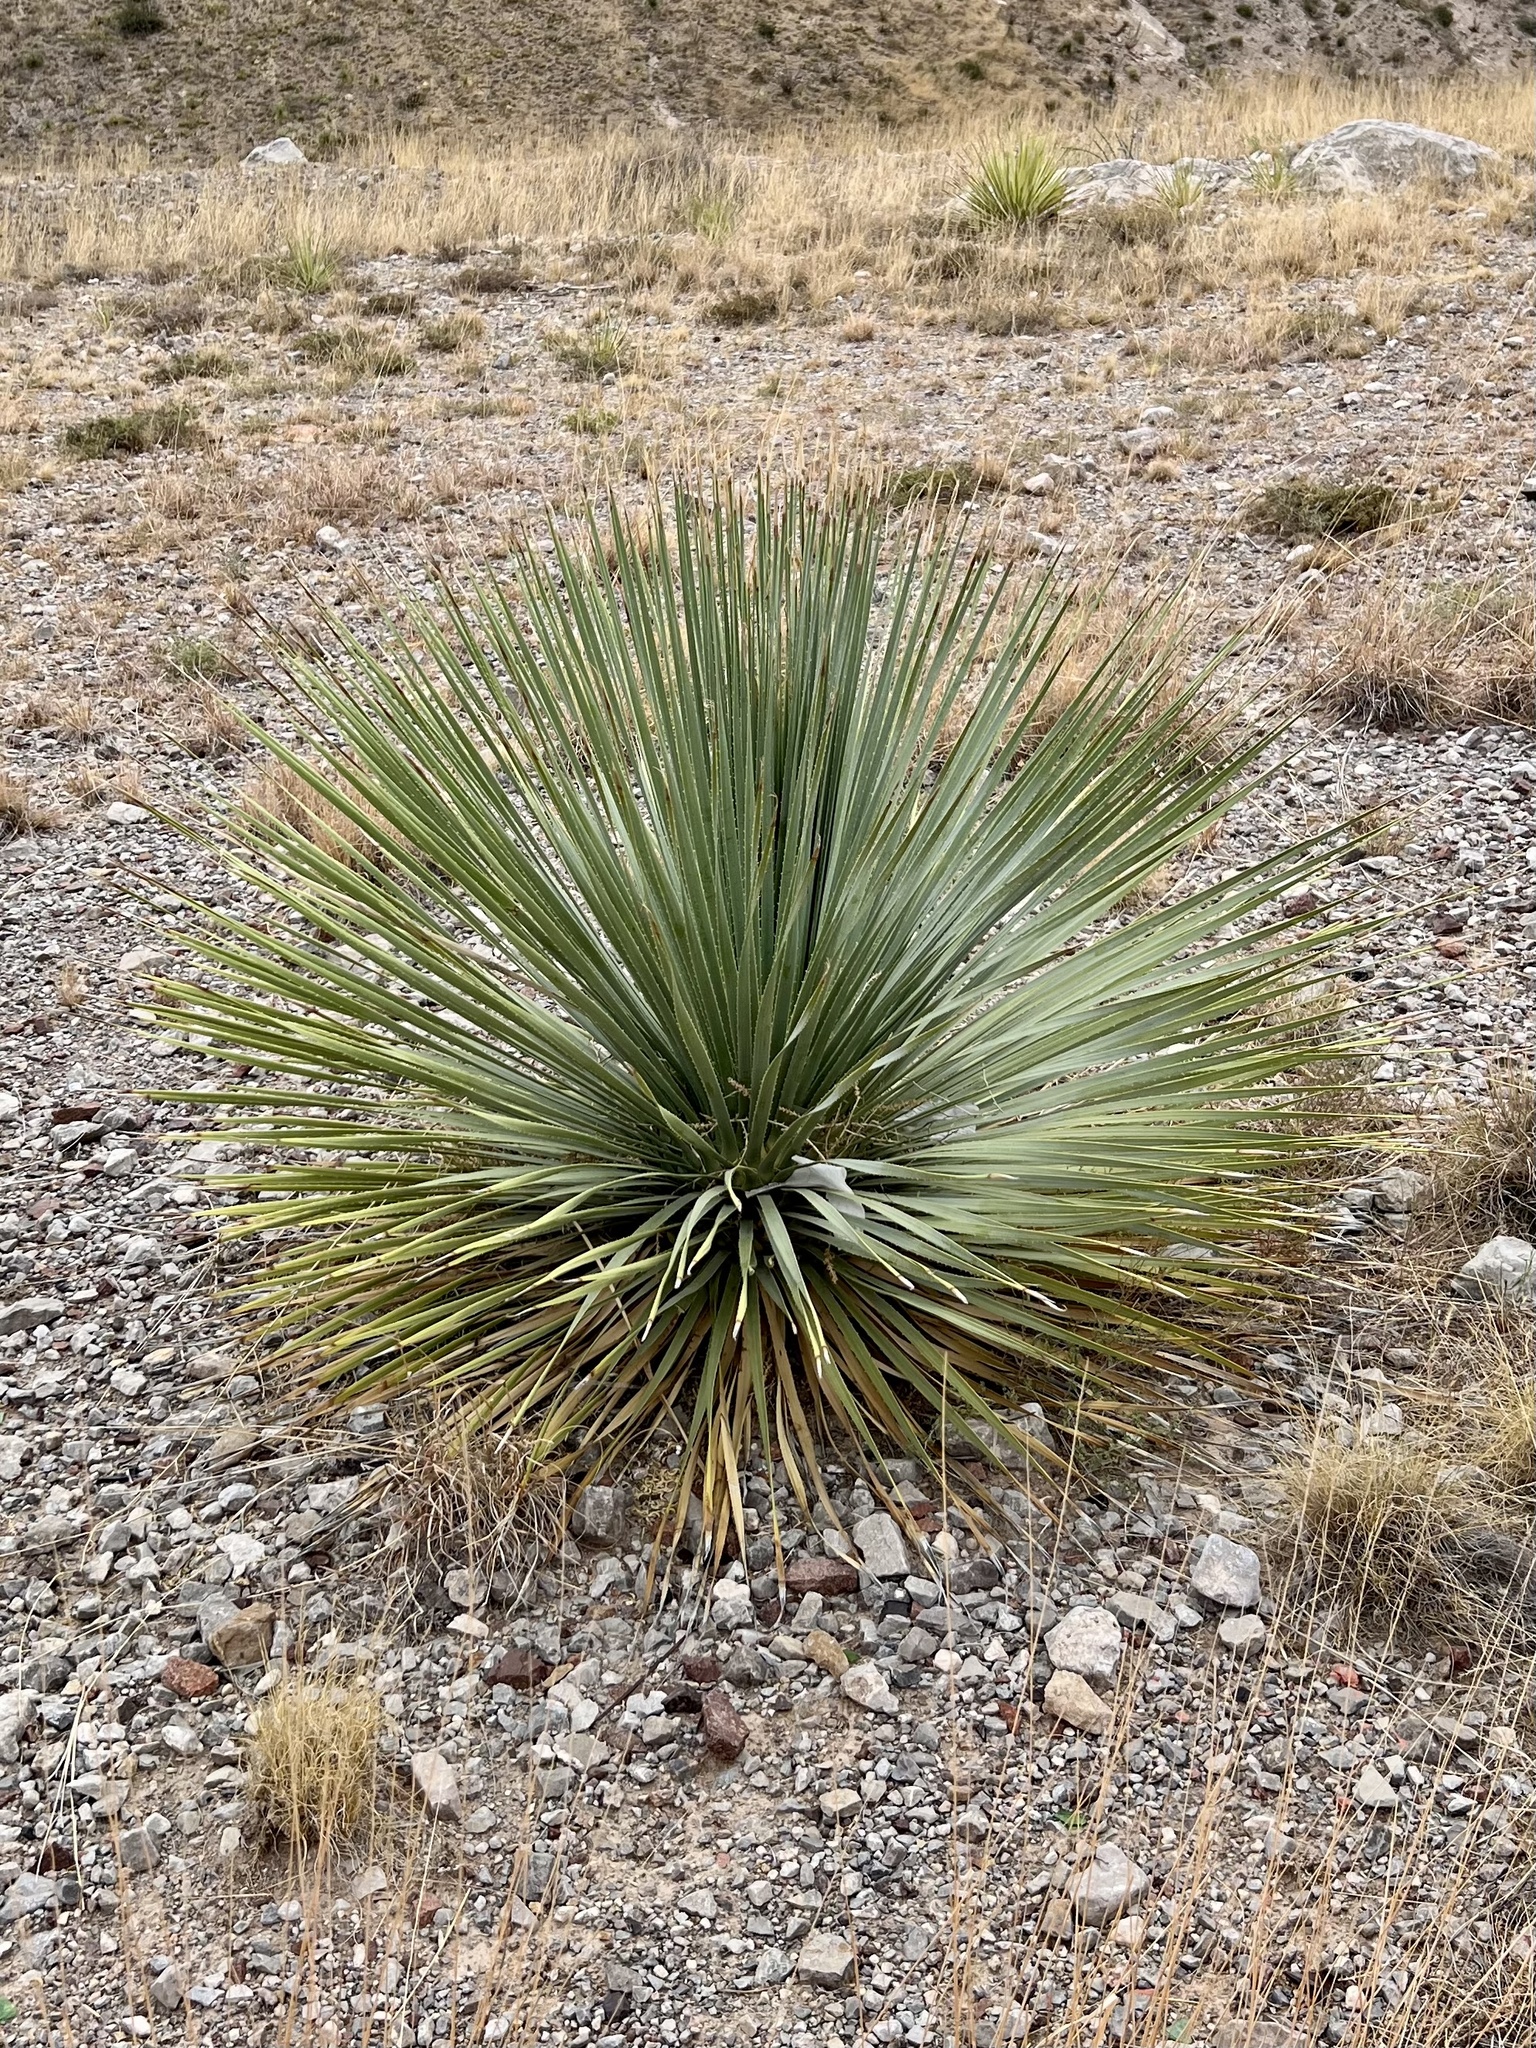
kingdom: Plantae
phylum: Tracheophyta
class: Liliopsida
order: Asparagales
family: Asparagaceae
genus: Dasylirion
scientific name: Dasylirion wheeleri
